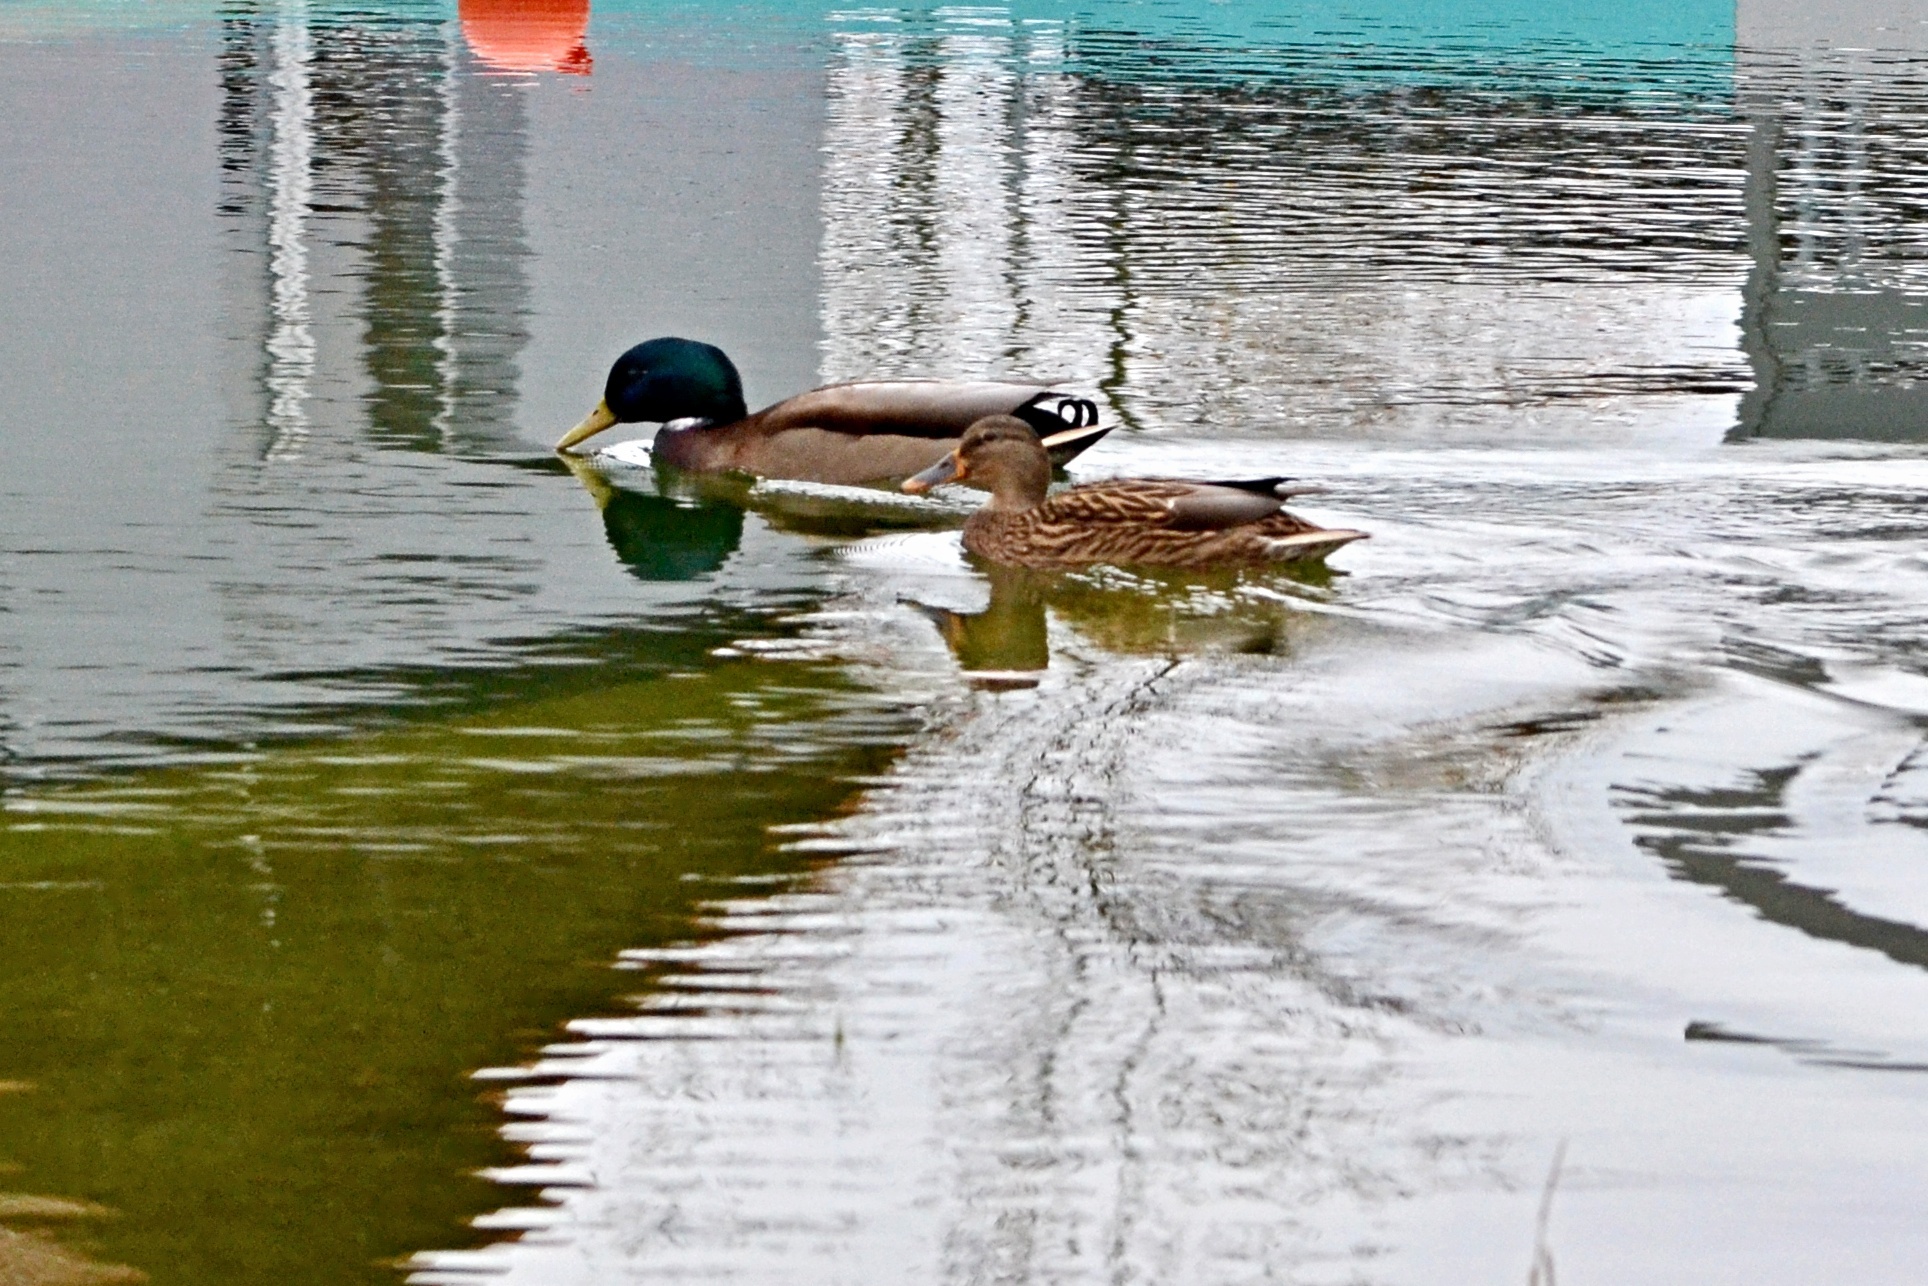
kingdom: Animalia
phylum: Chordata
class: Aves
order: Anseriformes
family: Anatidae
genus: Anas
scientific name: Anas platyrhynchos
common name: Mallard
